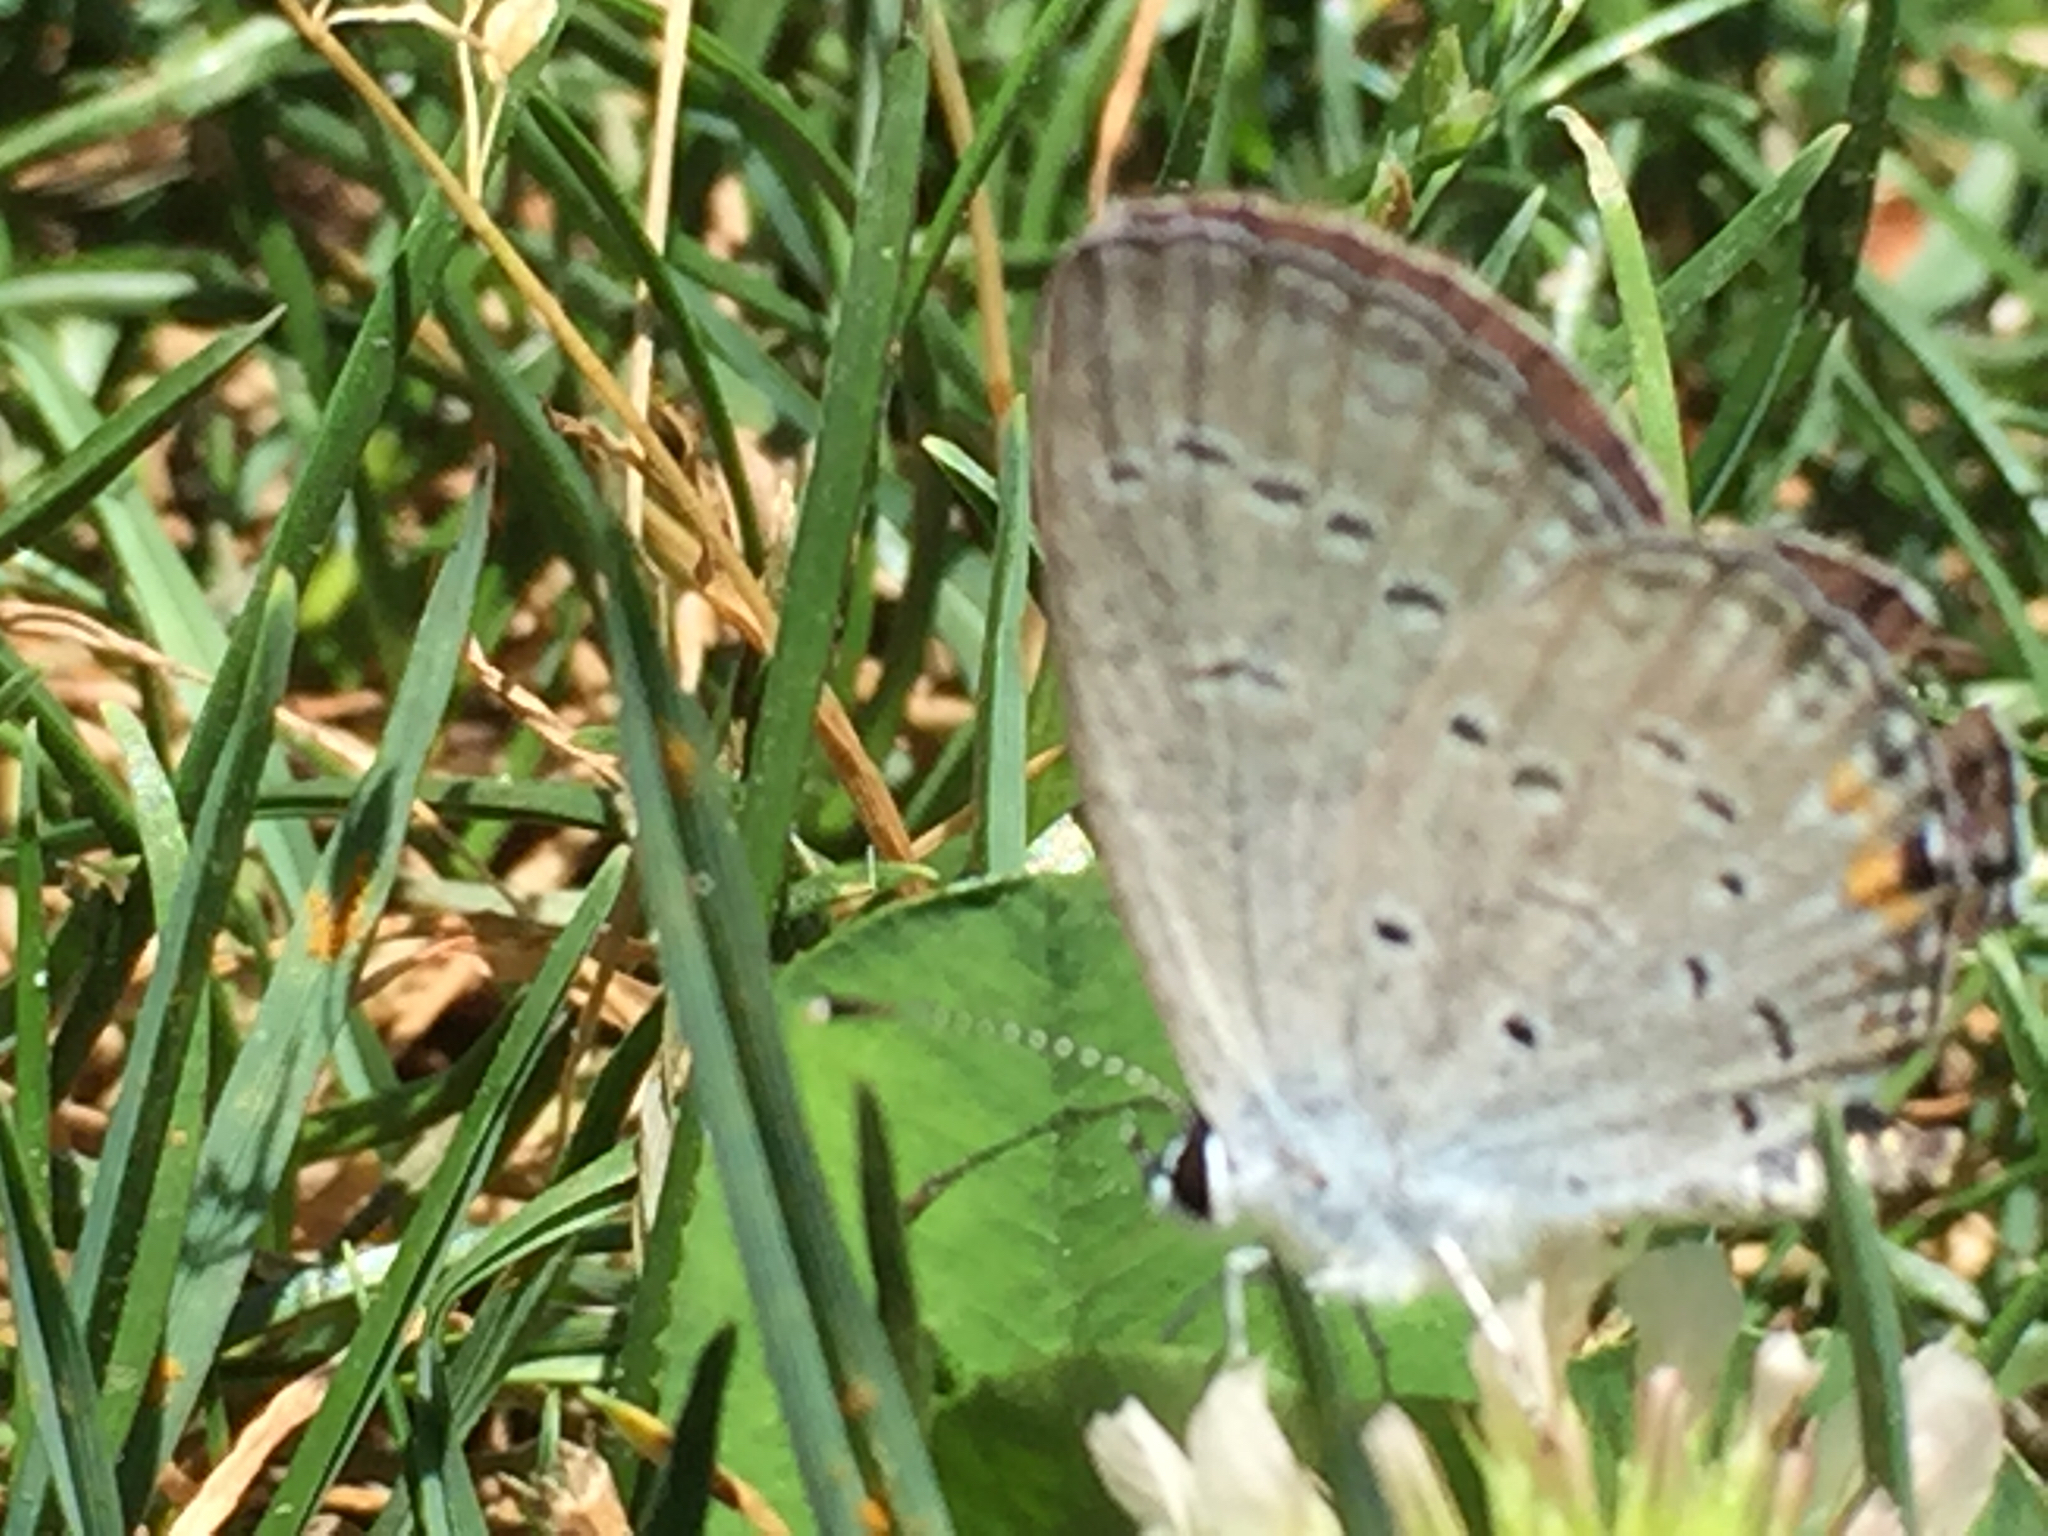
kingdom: Animalia
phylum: Arthropoda
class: Insecta
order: Lepidoptera
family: Lycaenidae
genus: Elkalyce
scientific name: Elkalyce comyntas
